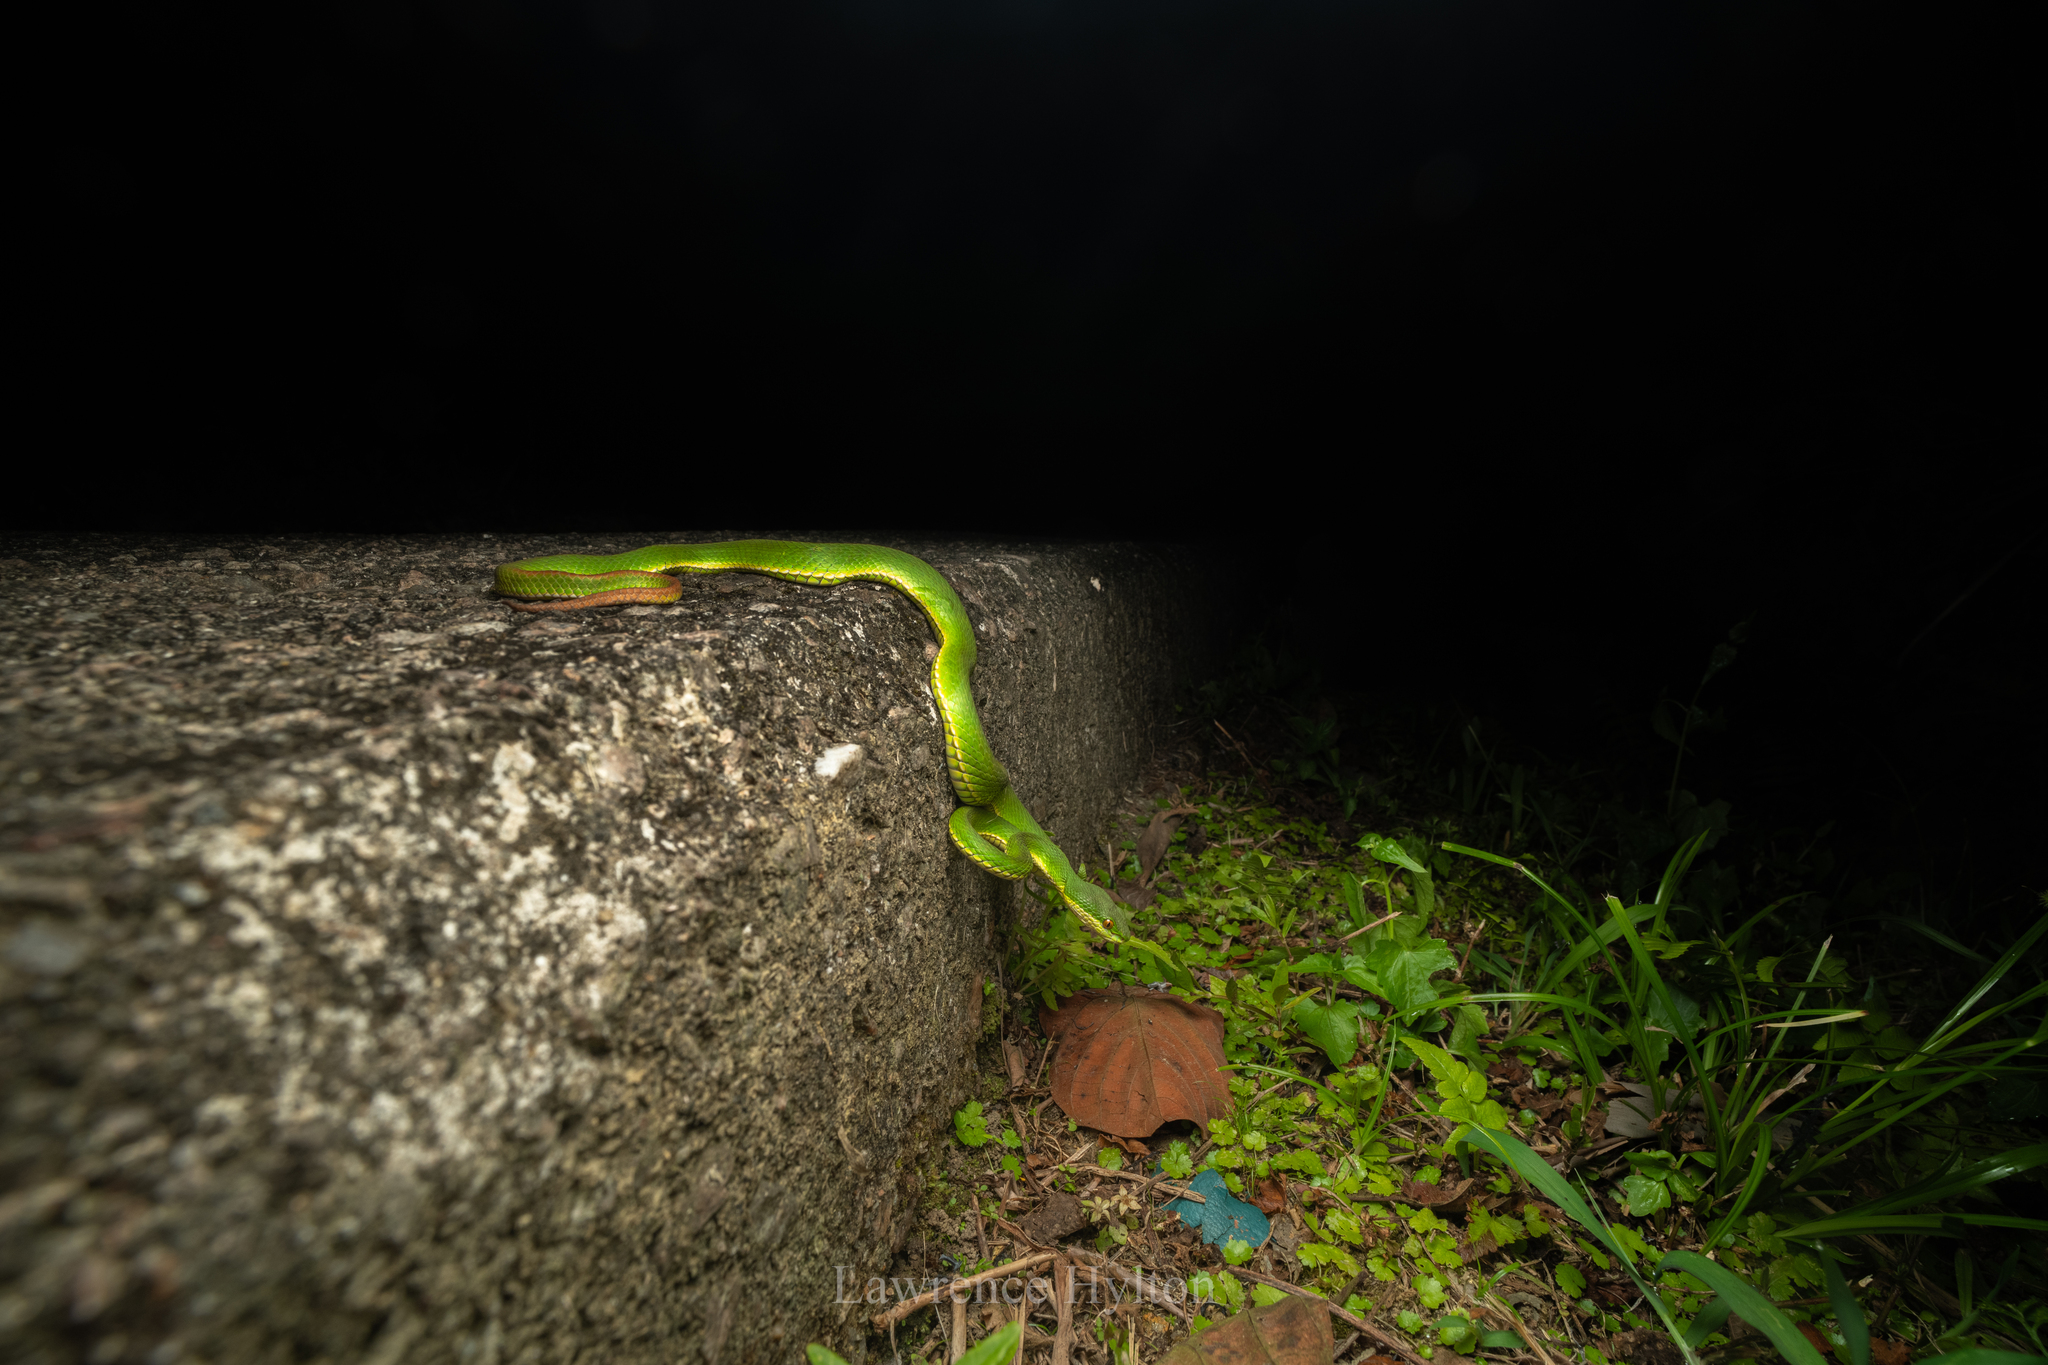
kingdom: Animalia
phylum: Chordata
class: Squamata
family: Viperidae
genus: Trimeresurus
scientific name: Trimeresurus albolabris
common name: White-lipped pitviper
